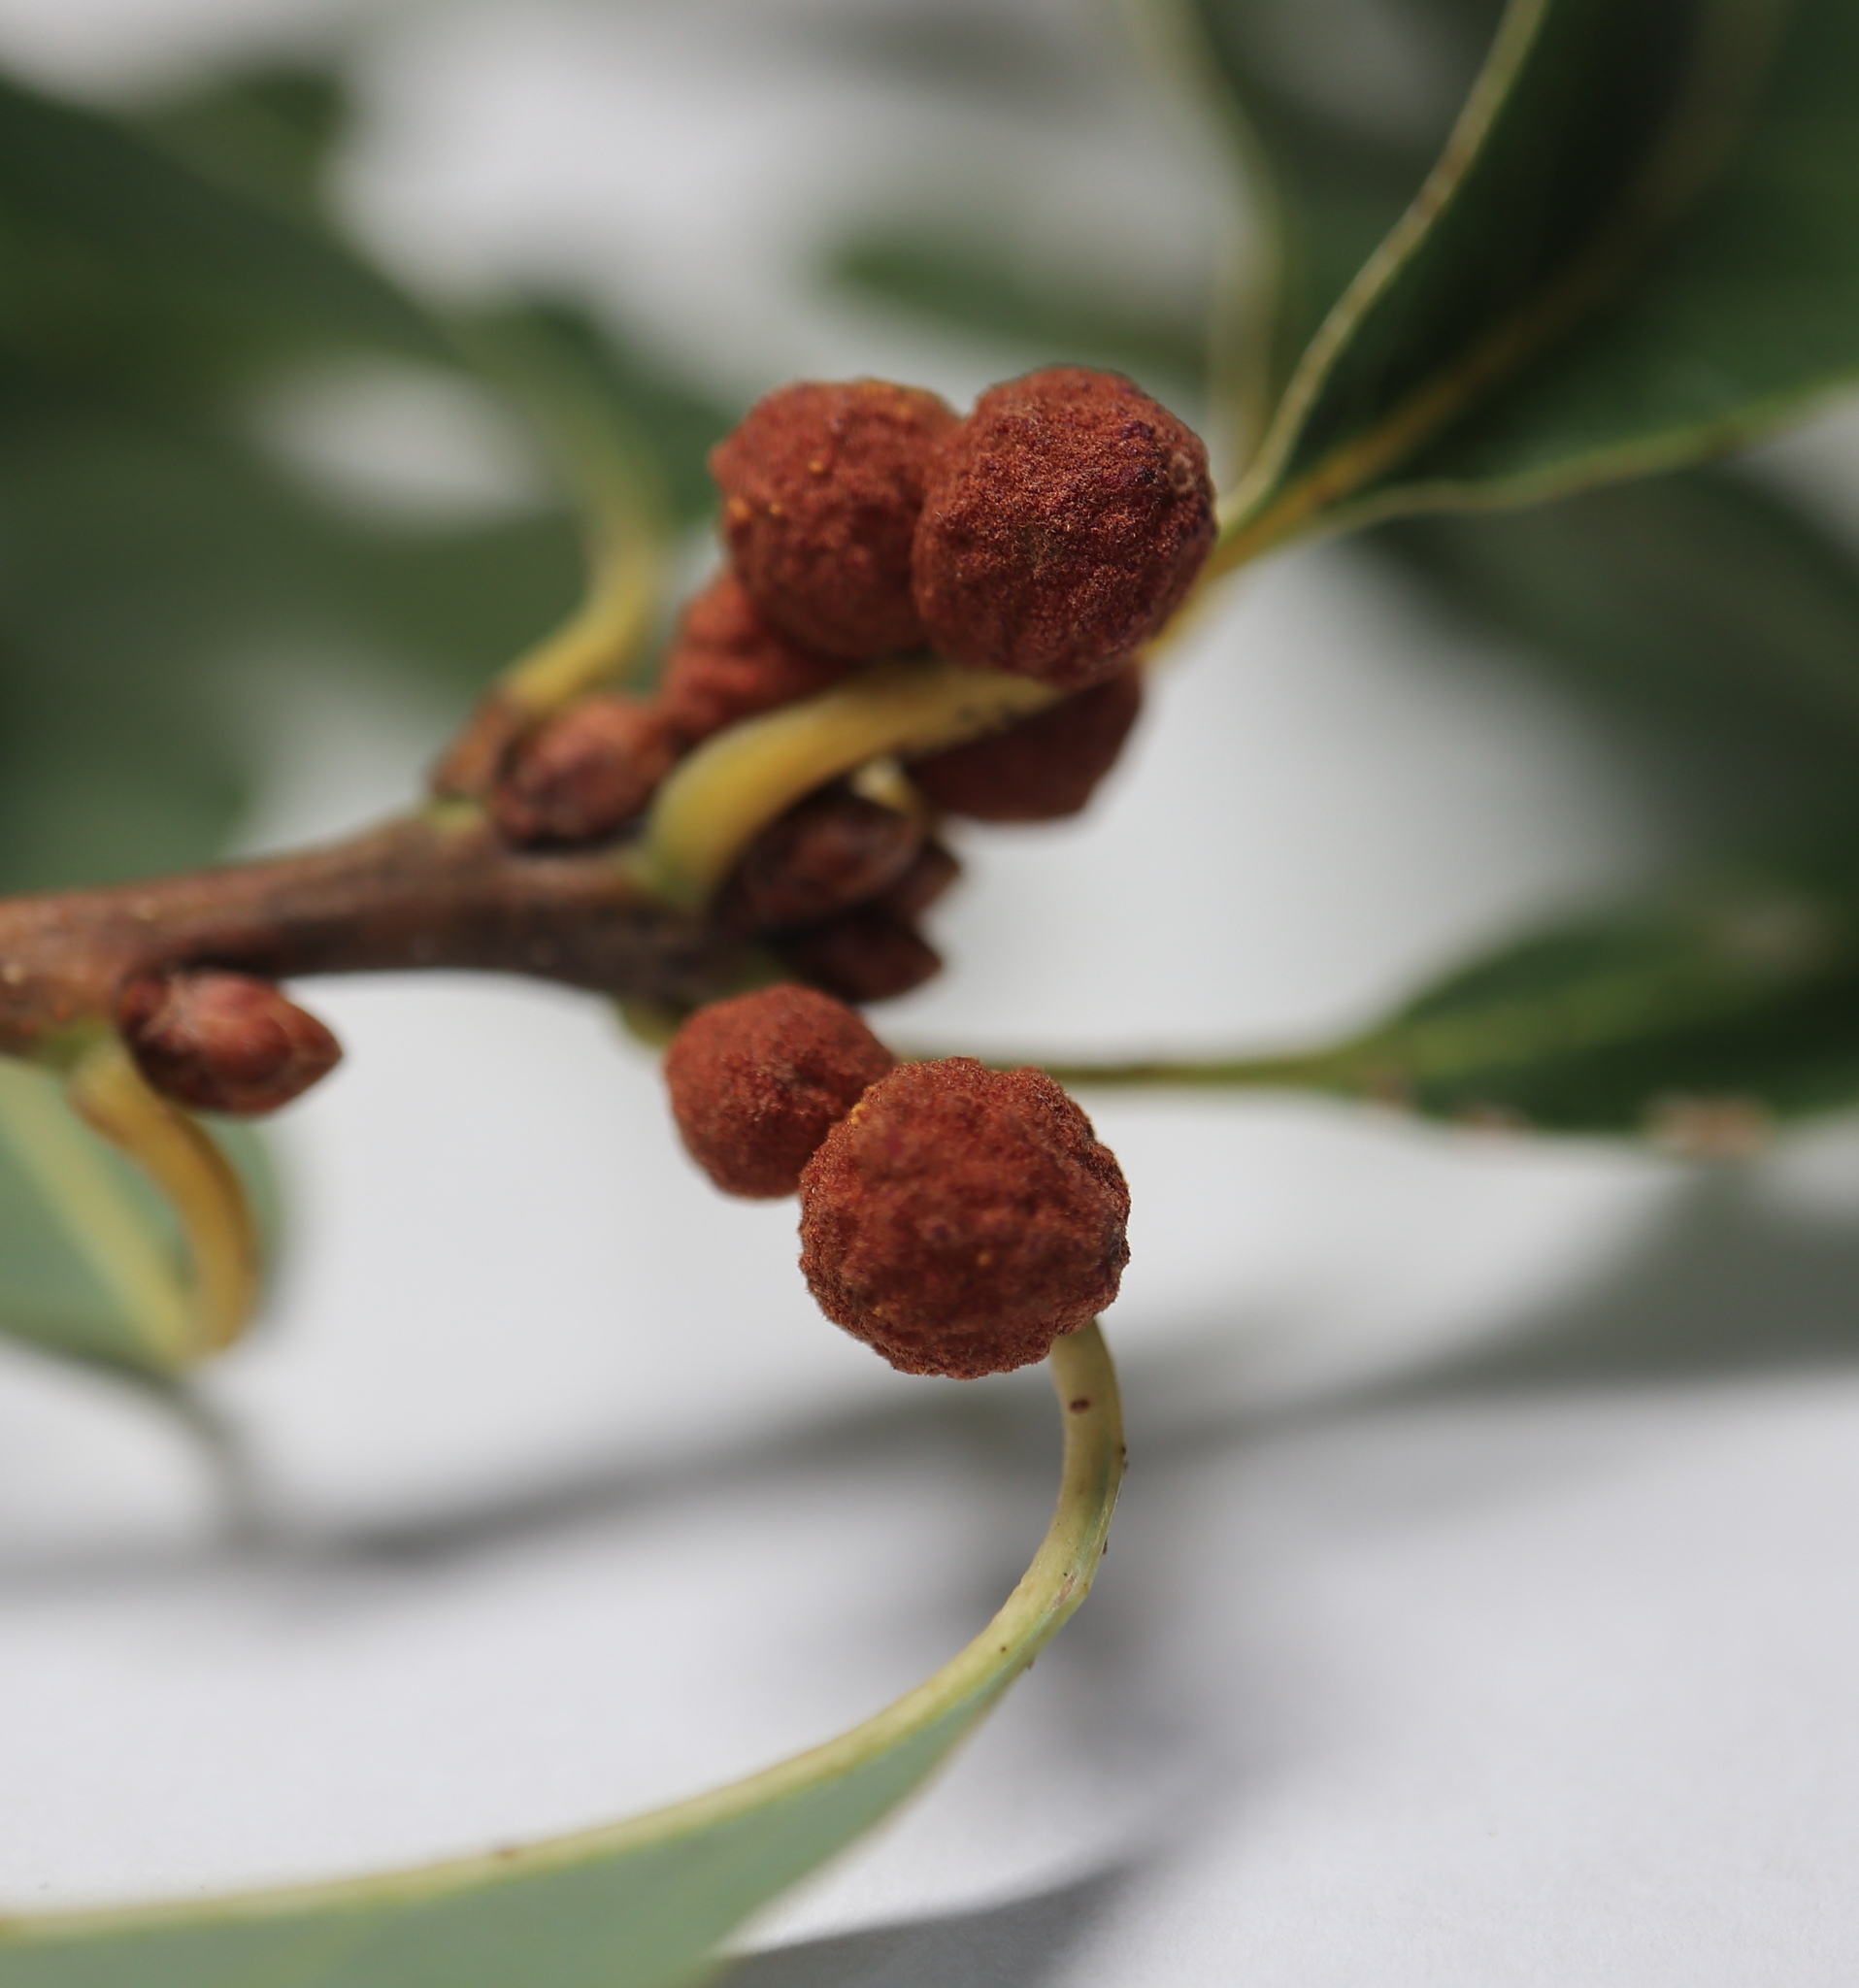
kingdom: Animalia
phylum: Arthropoda
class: Insecta
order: Hymenoptera
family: Cynipidae
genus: Andricus
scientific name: Andricus
